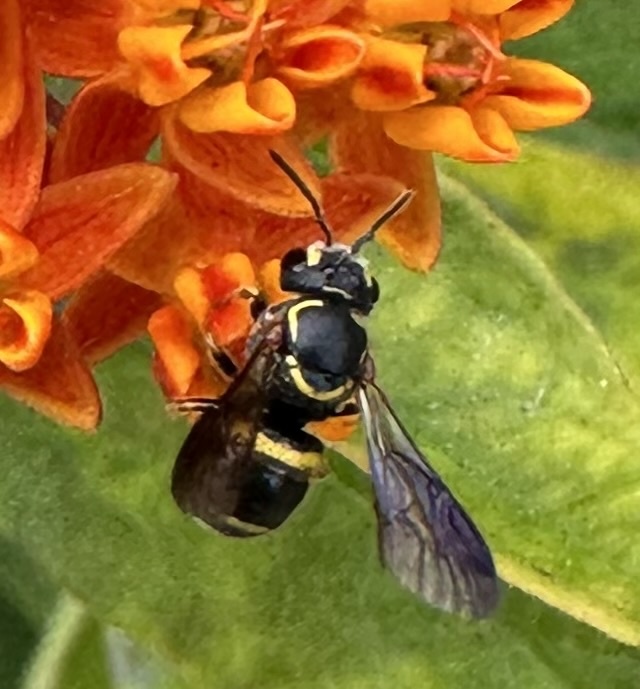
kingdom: Animalia
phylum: Arthropoda
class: Insecta
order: Hymenoptera
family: Megachilidae
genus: Stelis
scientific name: Stelis louisae
